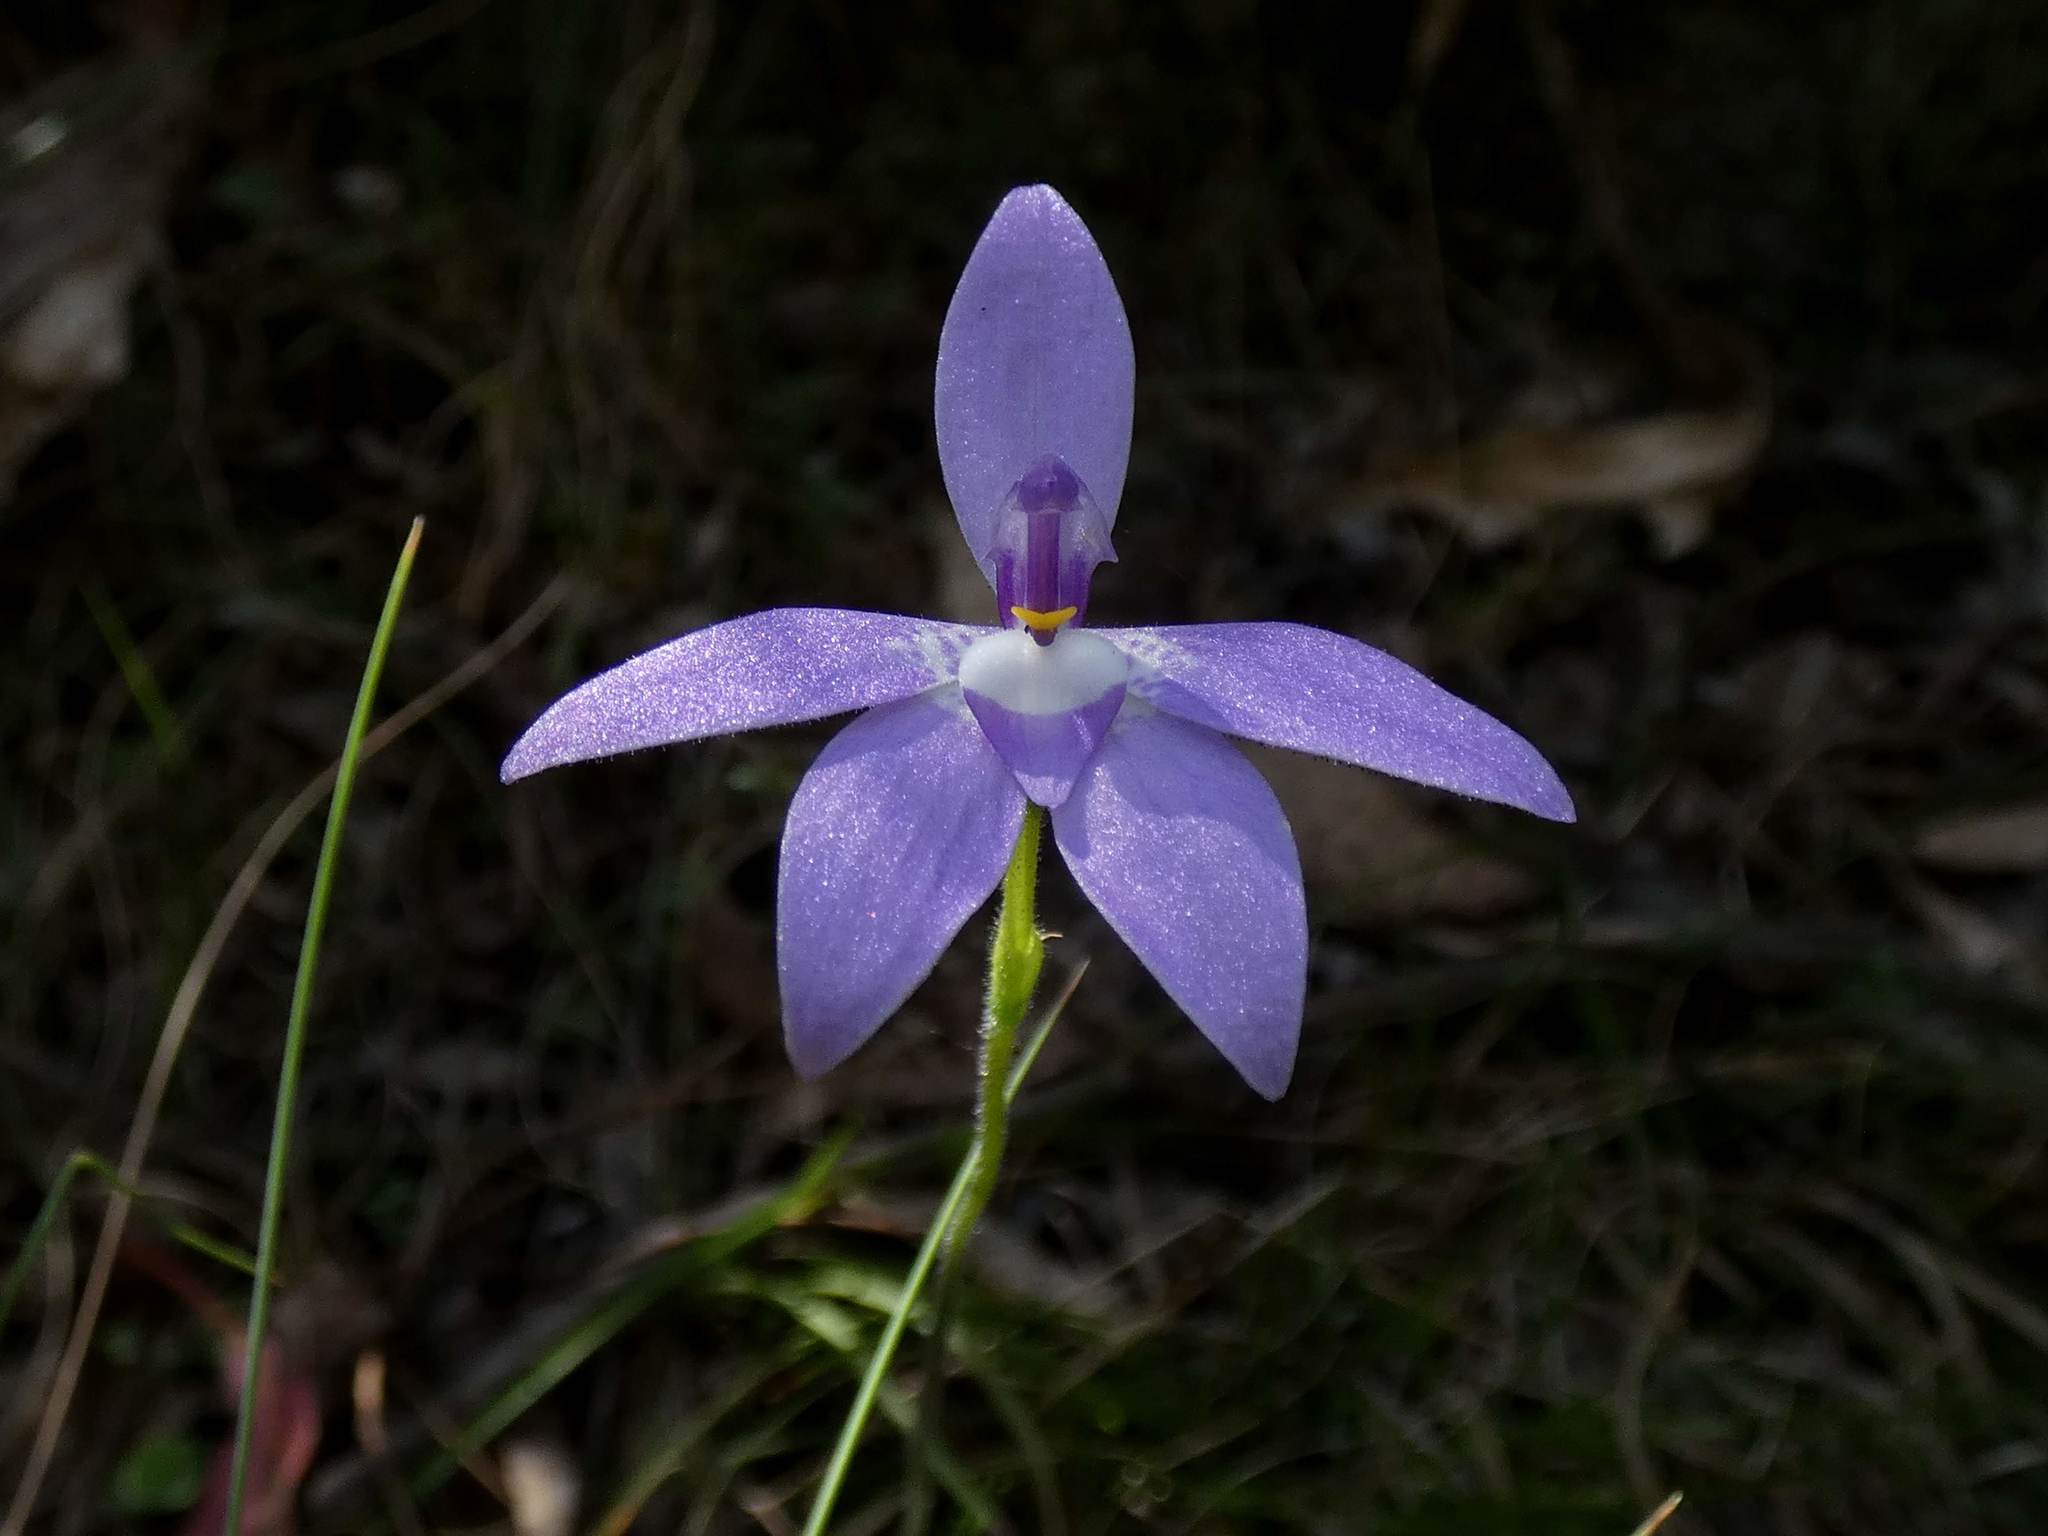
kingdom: Plantae
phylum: Tracheophyta
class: Liliopsida
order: Asparagales
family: Orchidaceae
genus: Caladenia
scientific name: Caladenia major
